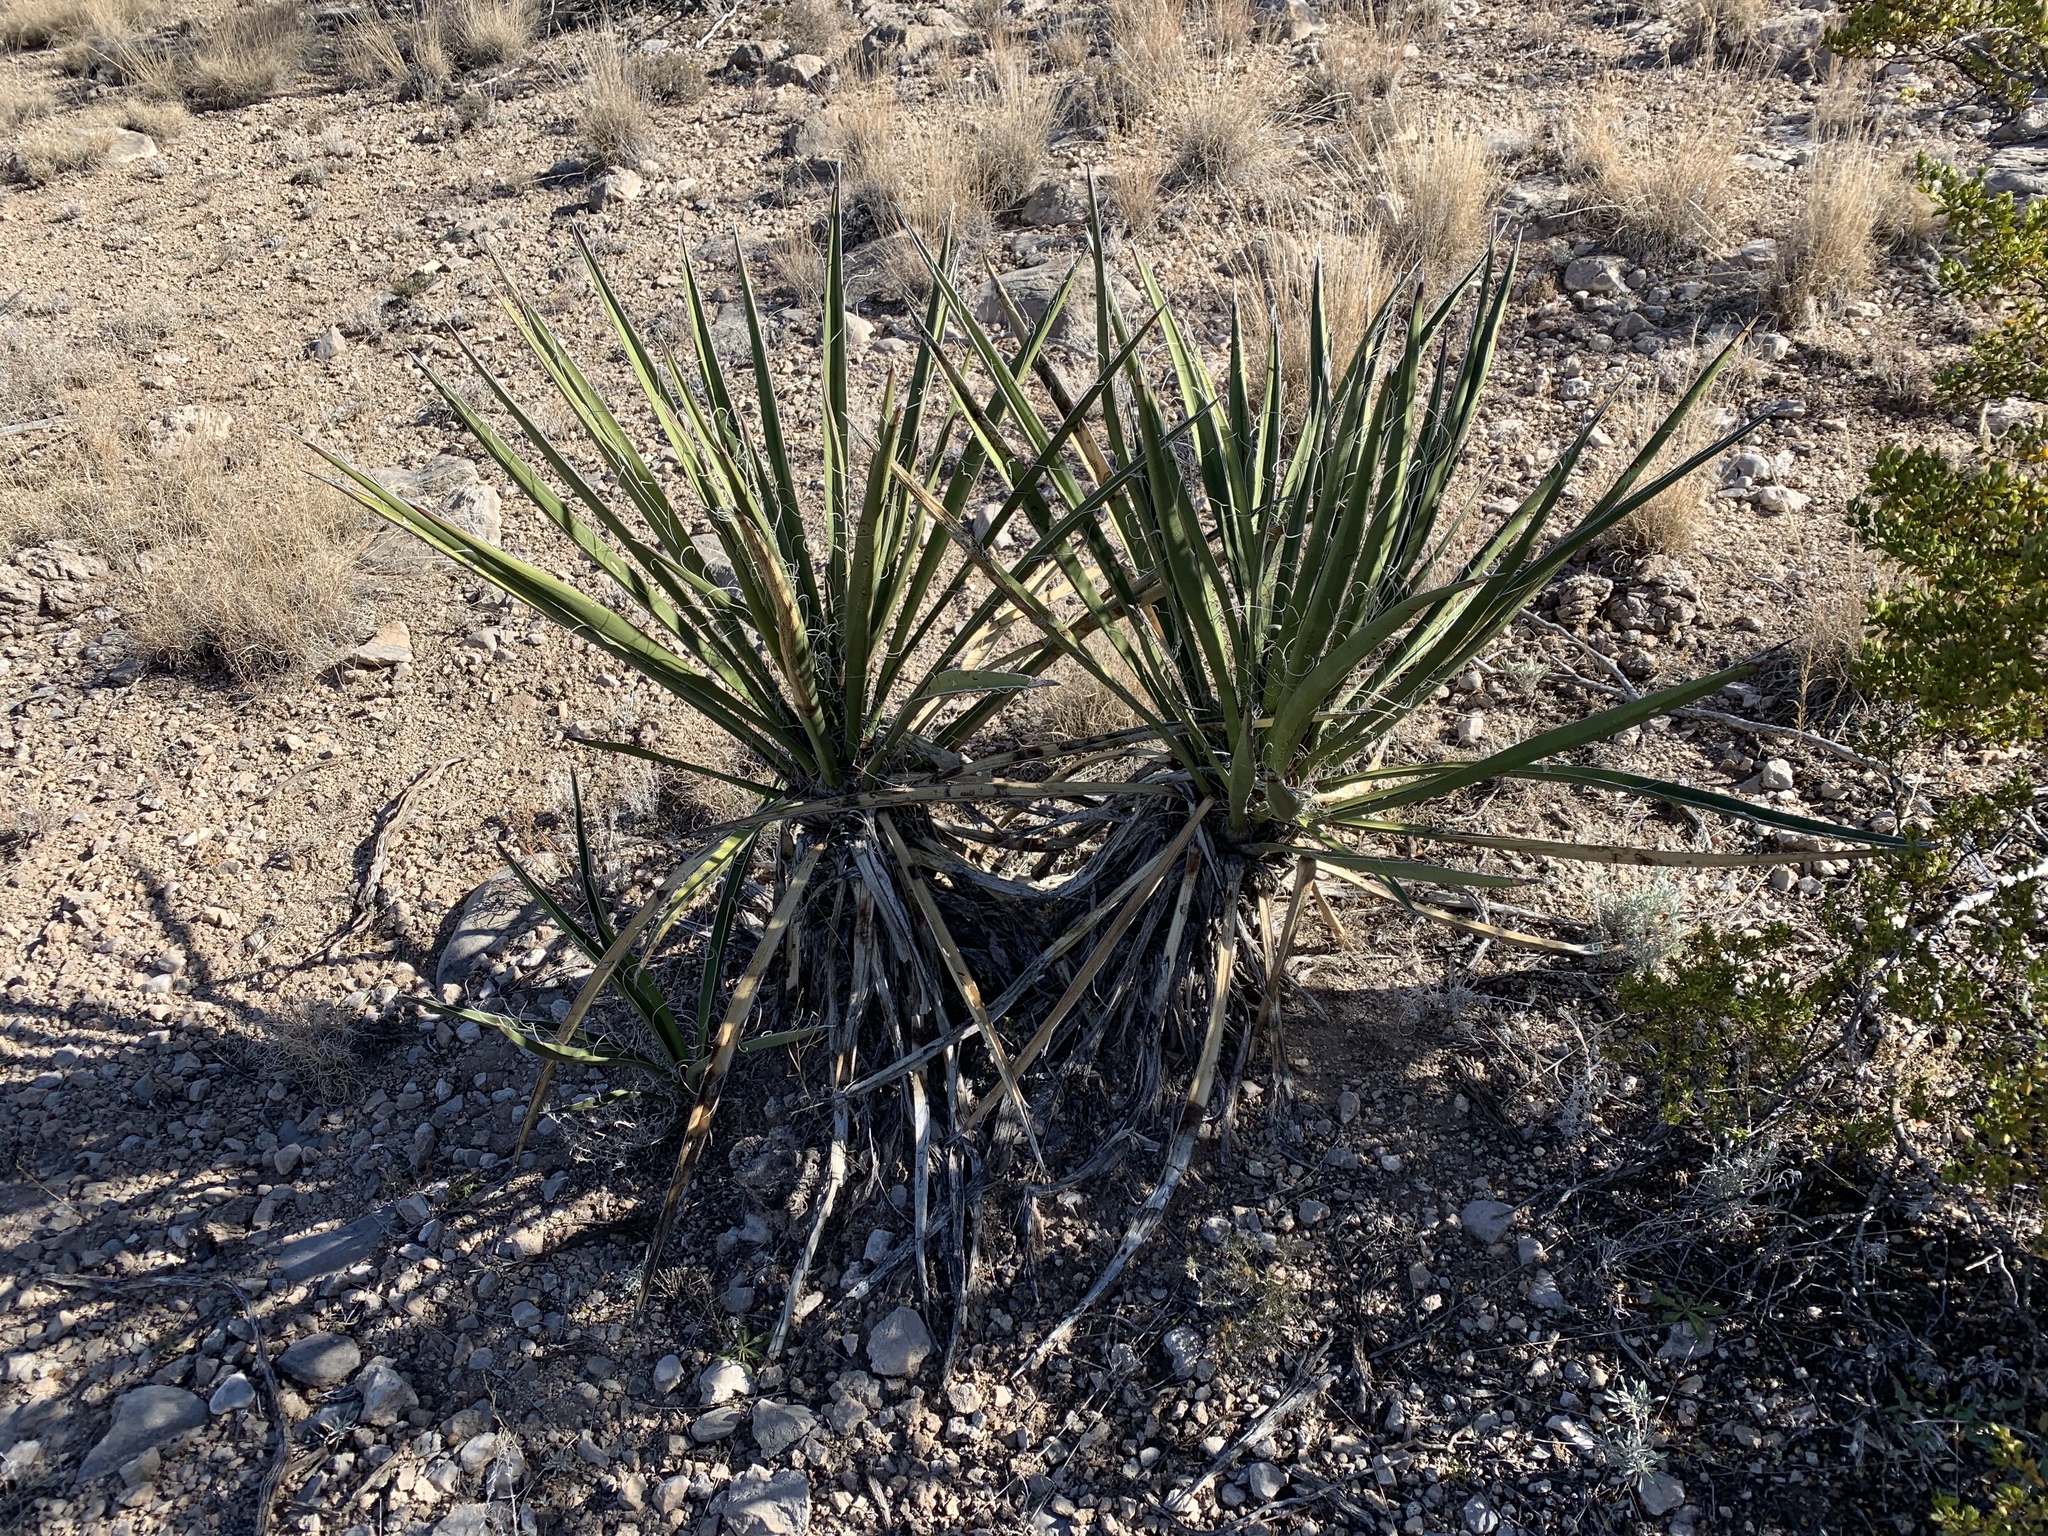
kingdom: Plantae
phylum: Tracheophyta
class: Liliopsida
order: Asparagales
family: Asparagaceae
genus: Yucca
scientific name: Yucca treculiana
